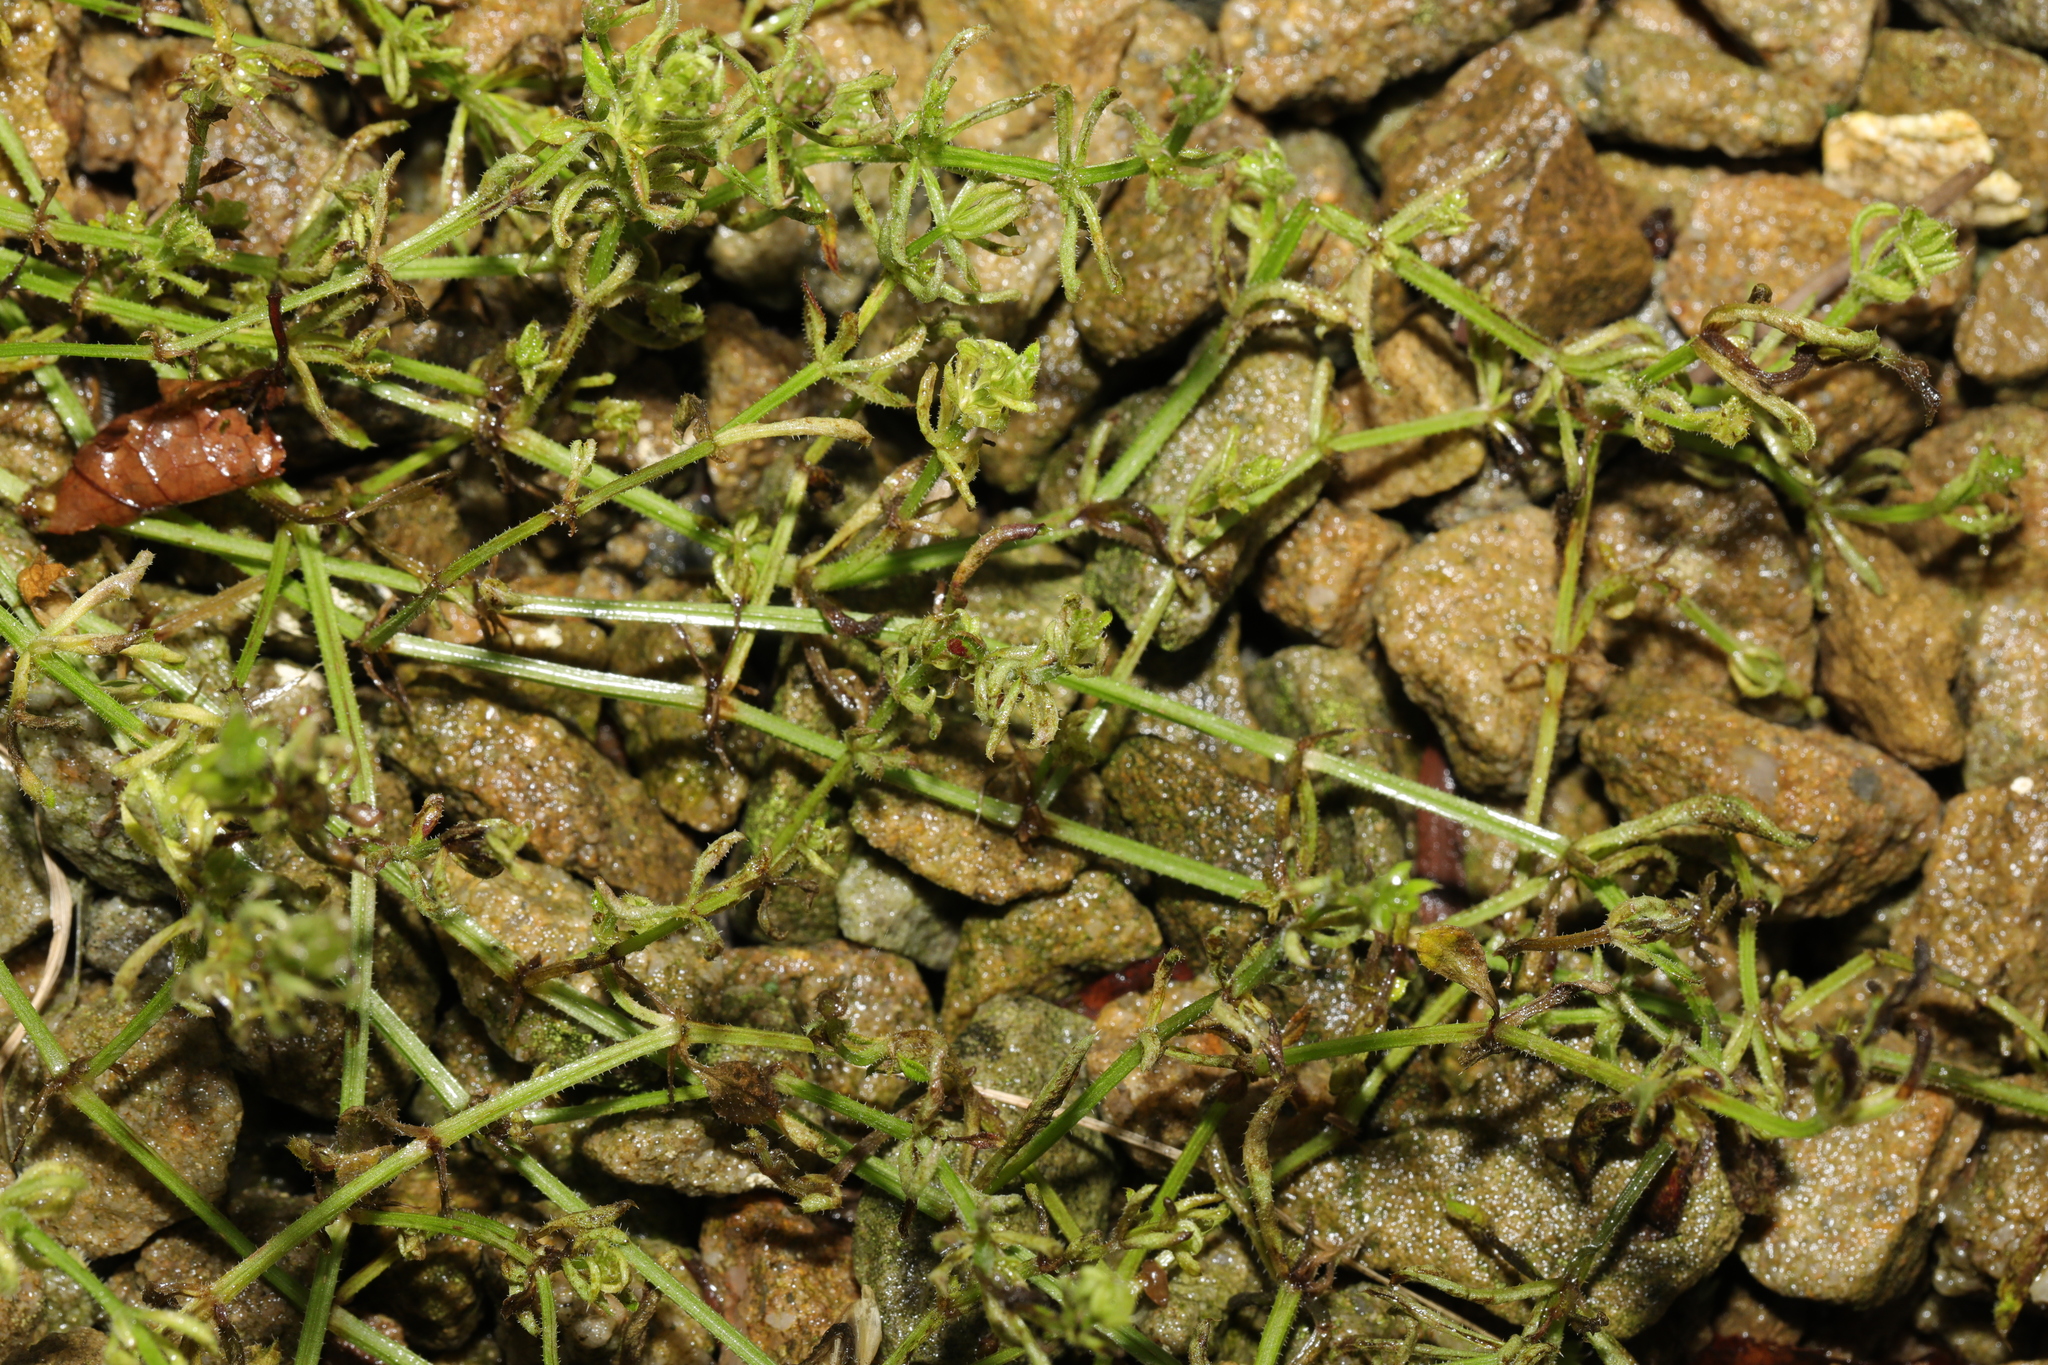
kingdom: Plantae
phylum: Tracheophyta
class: Magnoliopsida
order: Saxifragales
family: Crassulaceae
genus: Crassula
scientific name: Crassula helmsii
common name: New zealand pigmyweed
